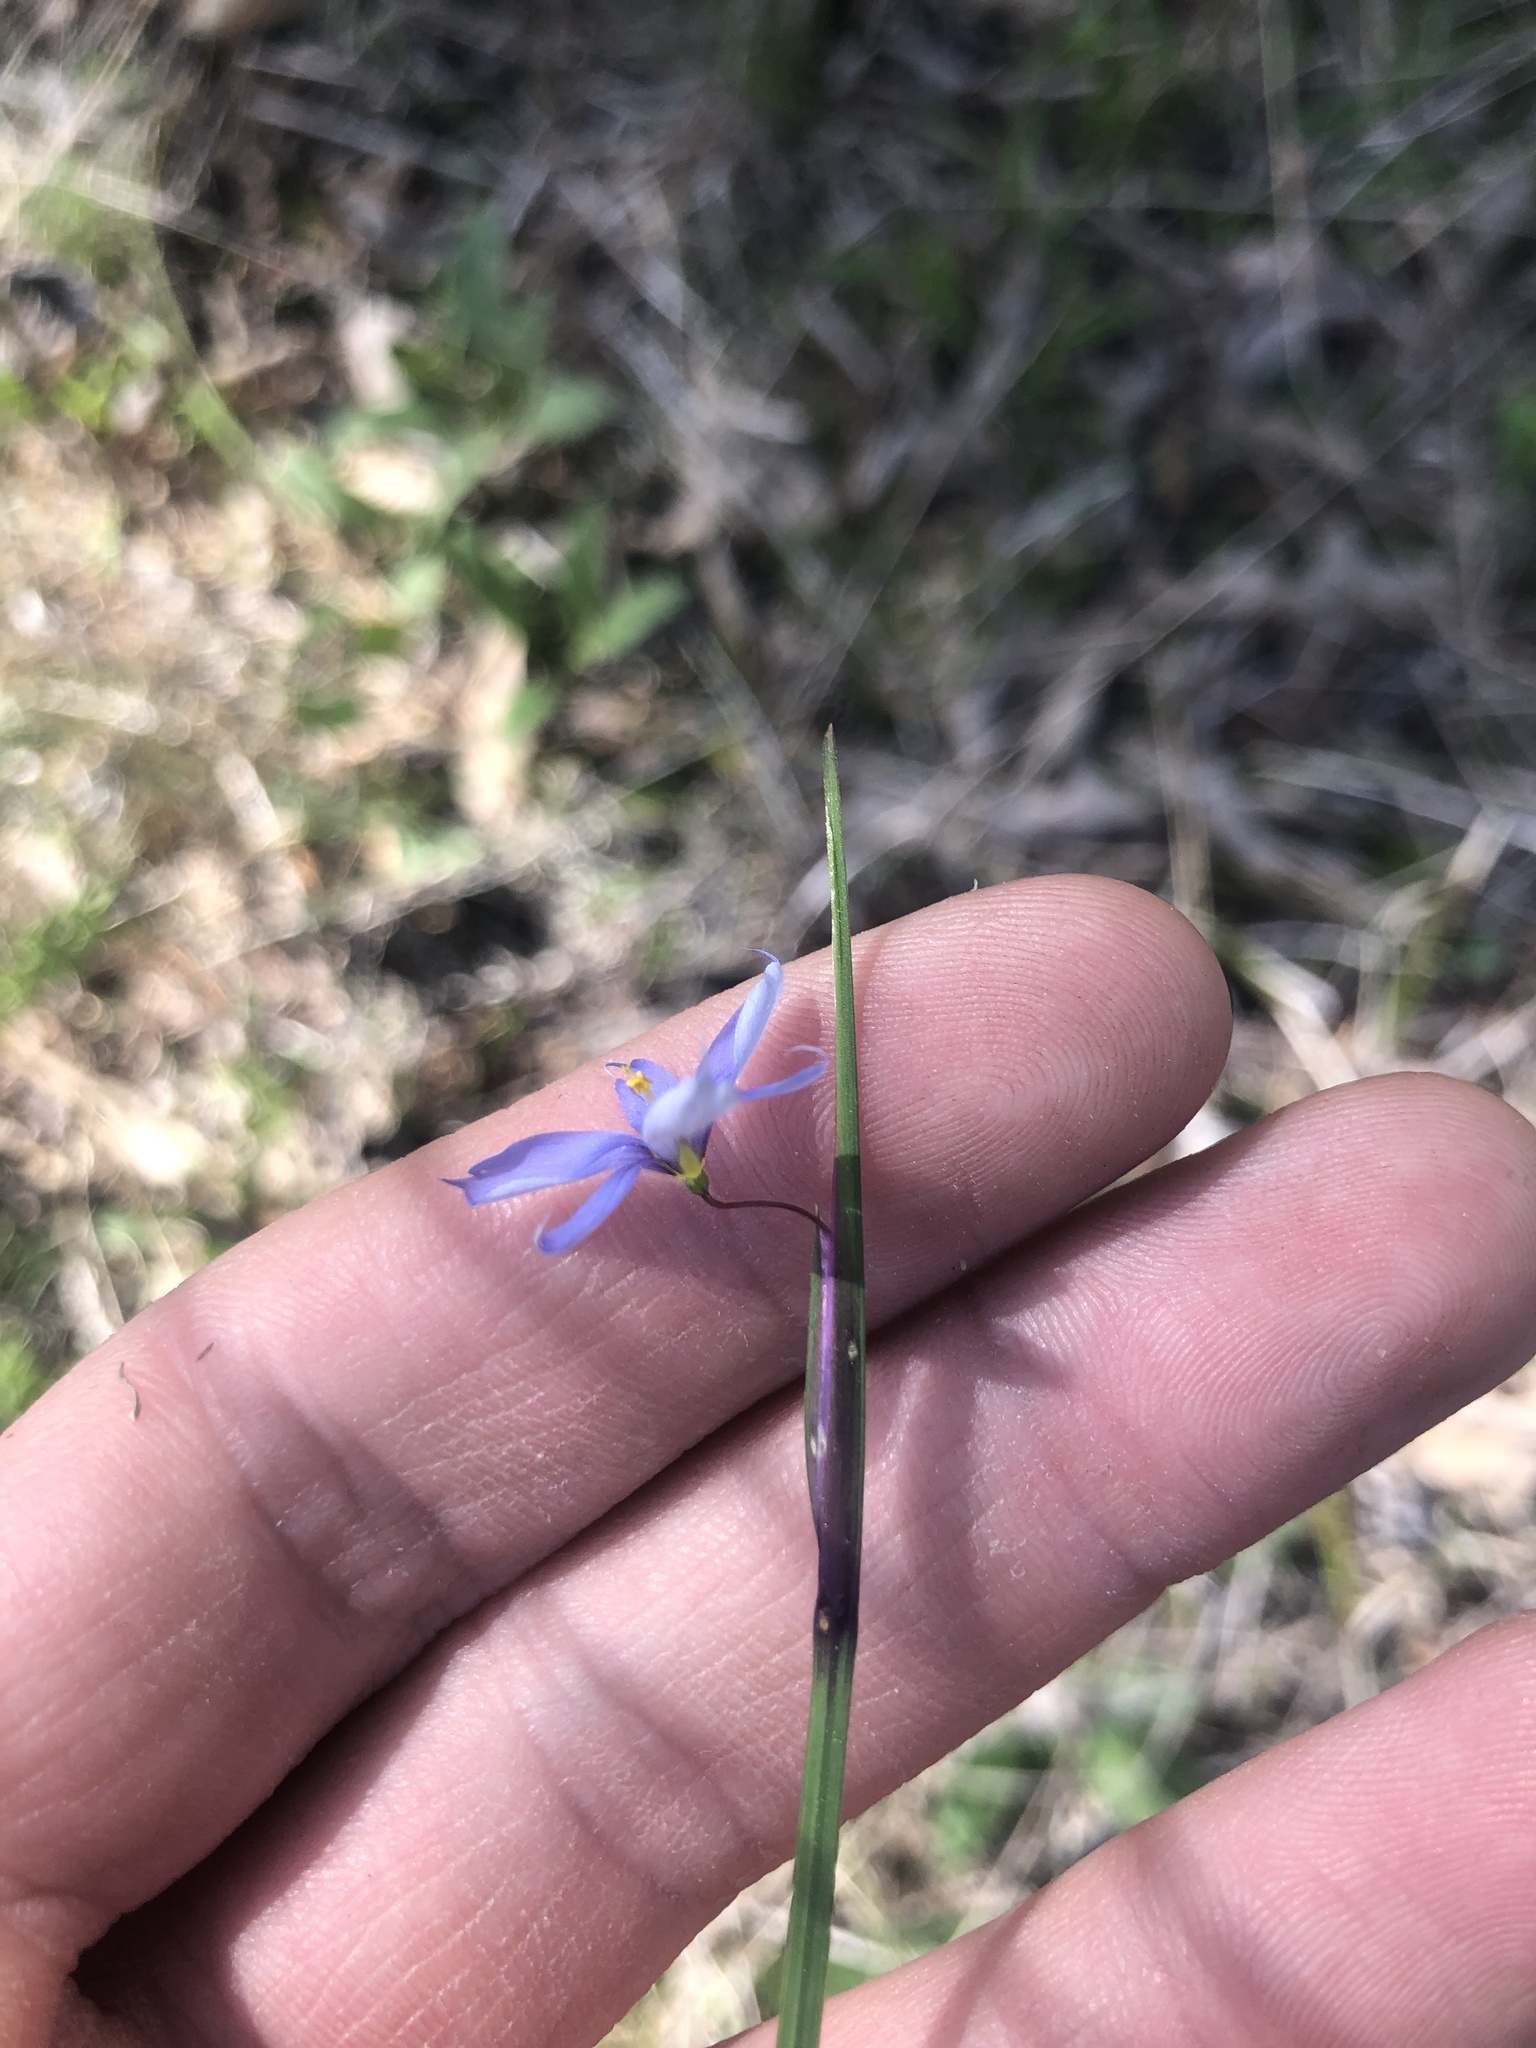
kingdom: Plantae
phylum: Tracheophyta
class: Liliopsida
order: Asparagales
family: Iridaceae
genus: Sisyrinchium
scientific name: Sisyrinchium mucronatum
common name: Eastern blue-eyed-grass
